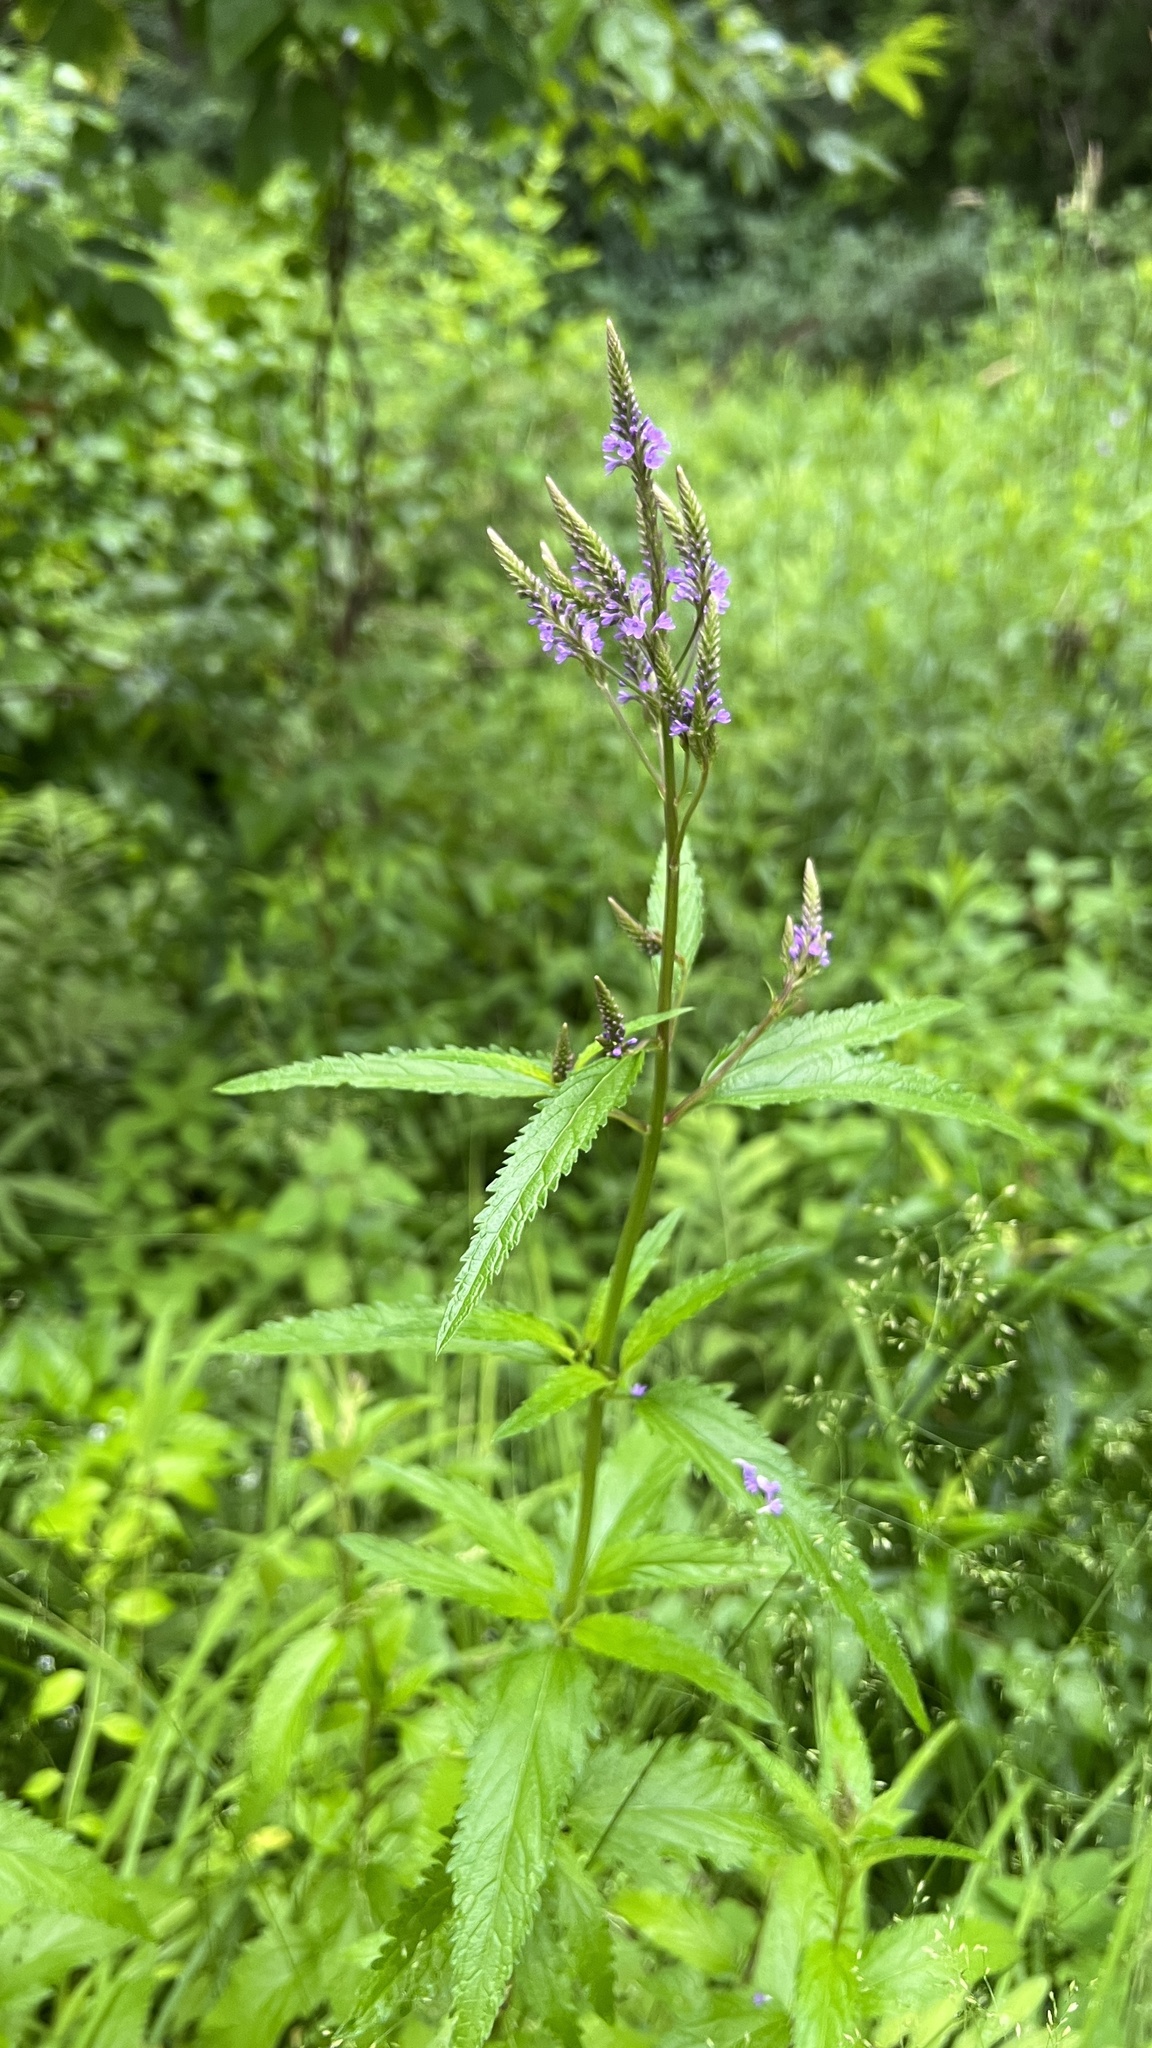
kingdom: Plantae
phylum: Tracheophyta
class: Magnoliopsida
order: Lamiales
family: Verbenaceae
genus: Verbena
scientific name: Verbena hastata
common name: American blue vervain
